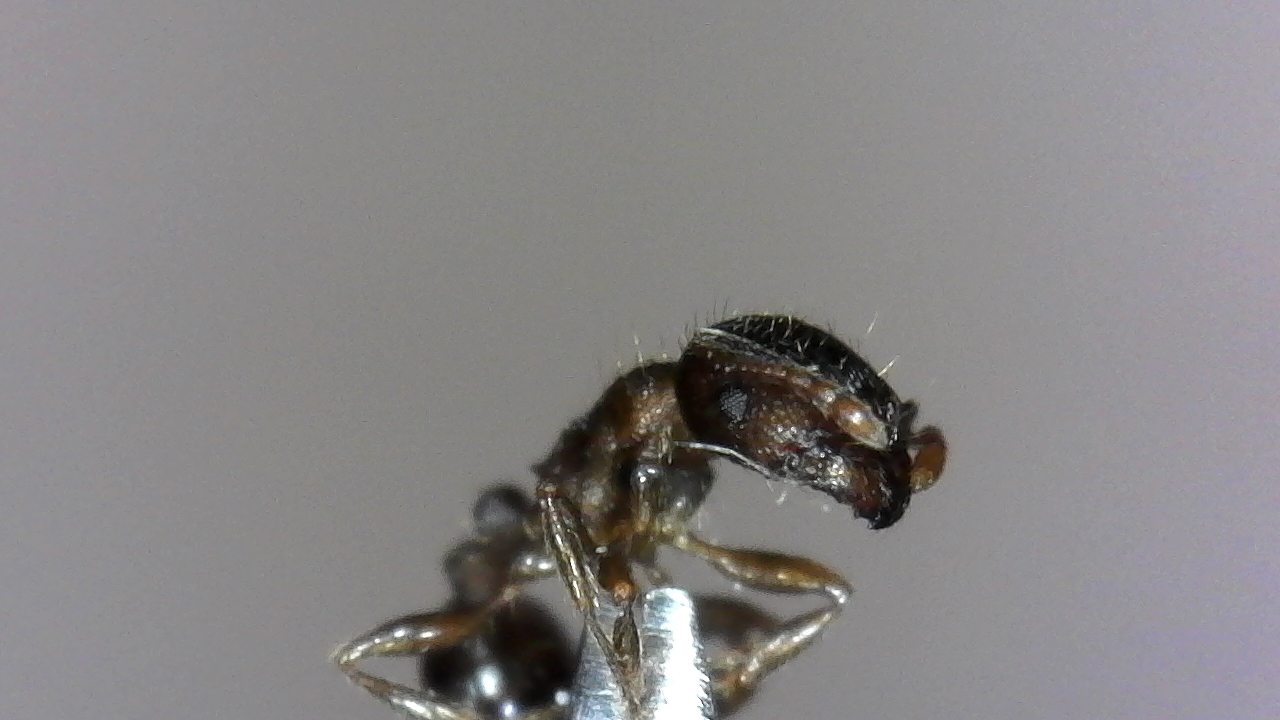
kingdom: Animalia
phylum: Arthropoda
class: Insecta
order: Hymenoptera
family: Formicidae
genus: Tetramorium
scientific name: Tetramorium immigrans
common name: Pavement ant
